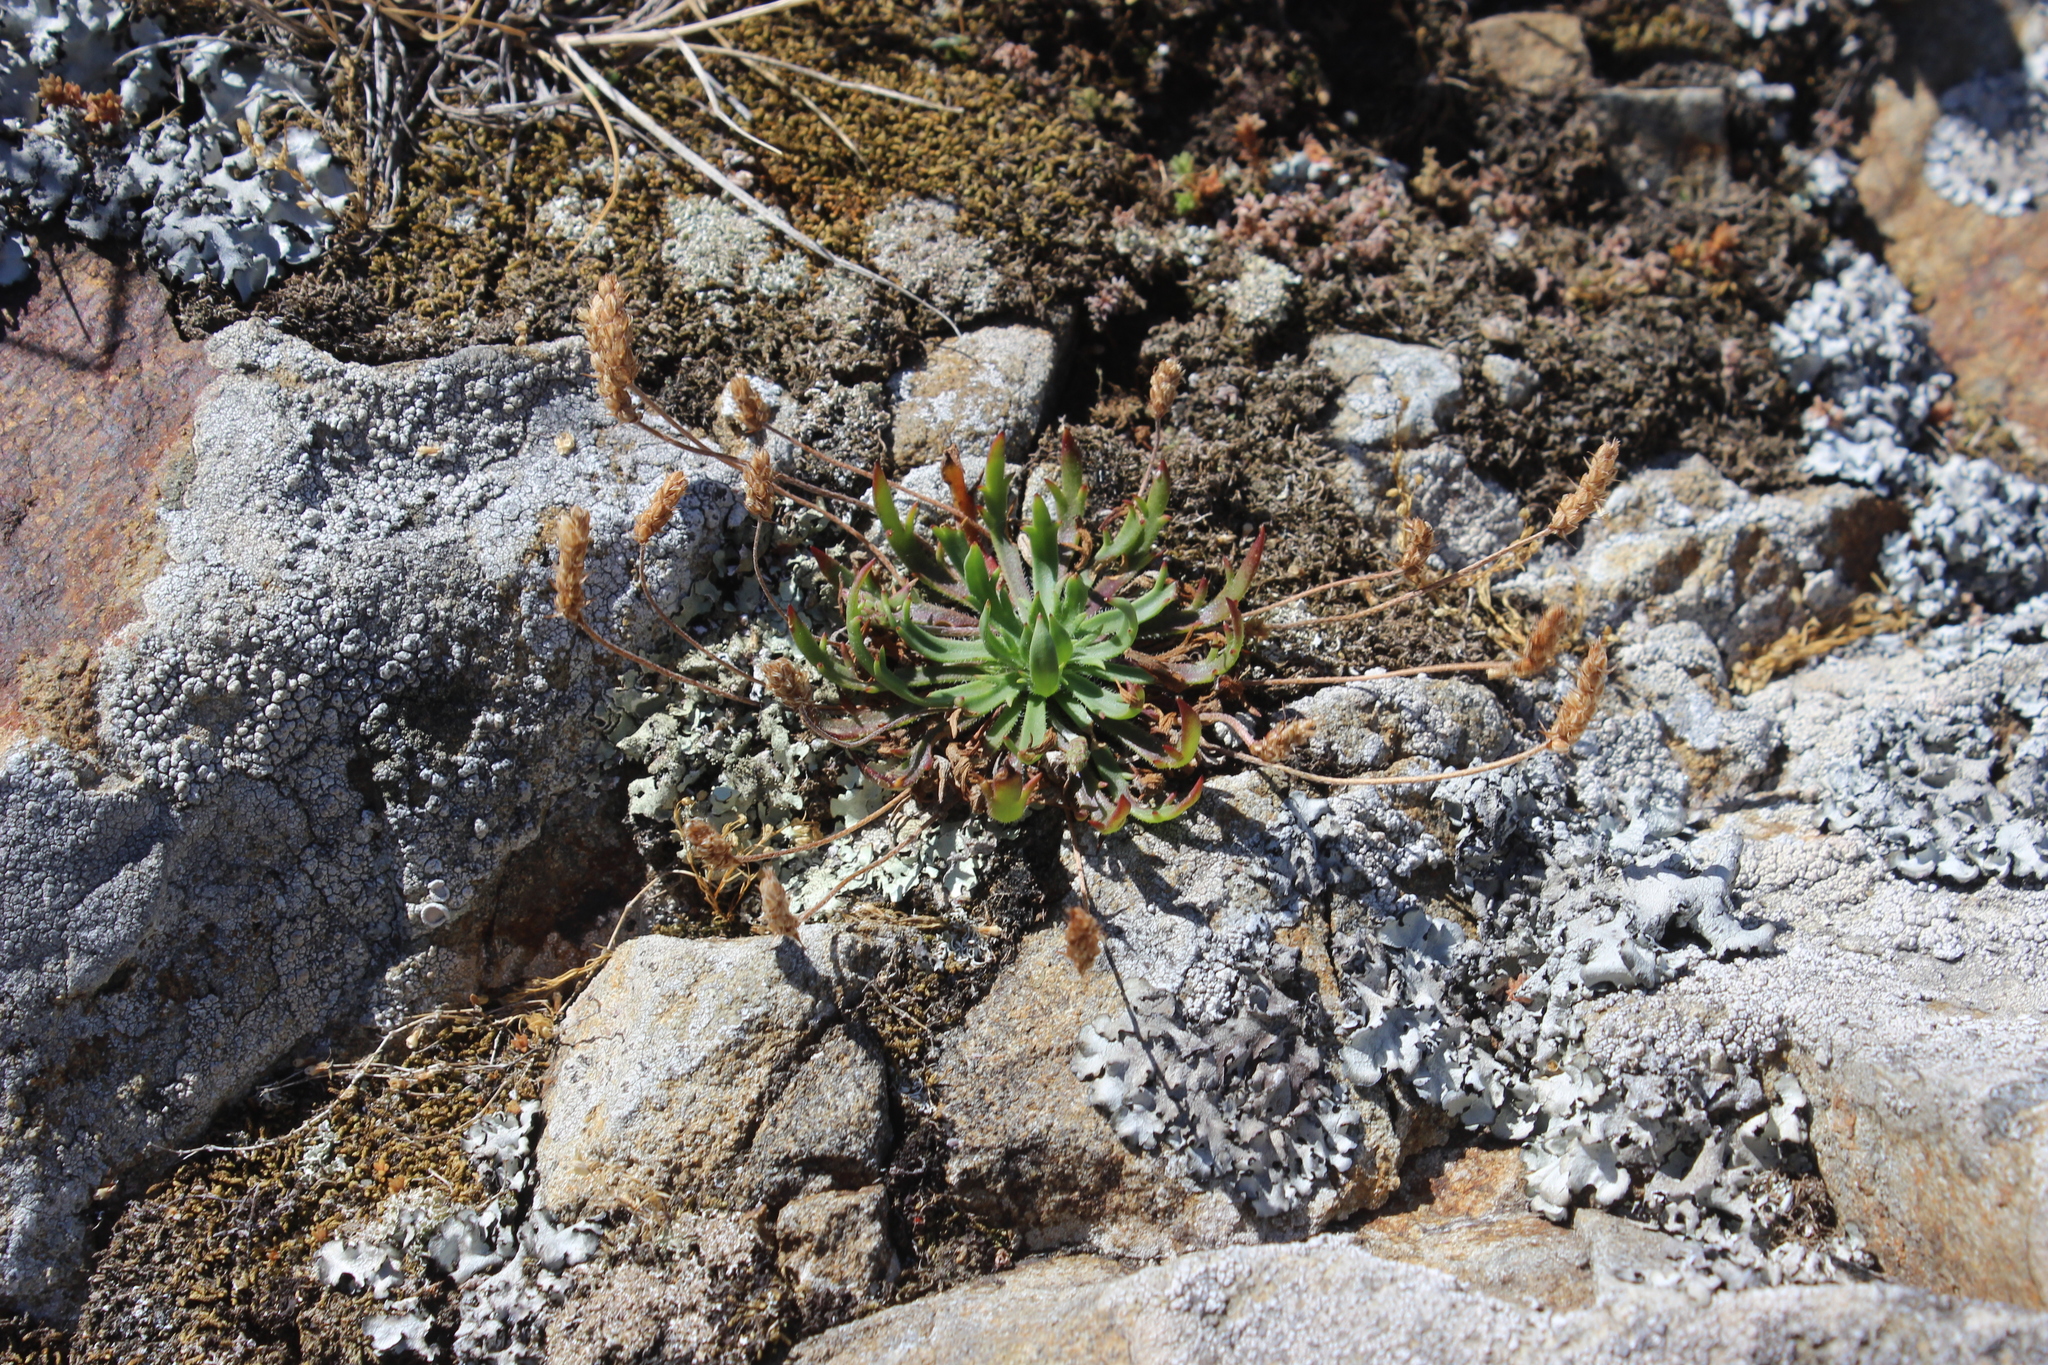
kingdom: Plantae
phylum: Tracheophyta
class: Magnoliopsida
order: Lamiales
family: Plantaginaceae
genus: Plantago
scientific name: Plantago coronopus
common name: Buck's-horn plantain
